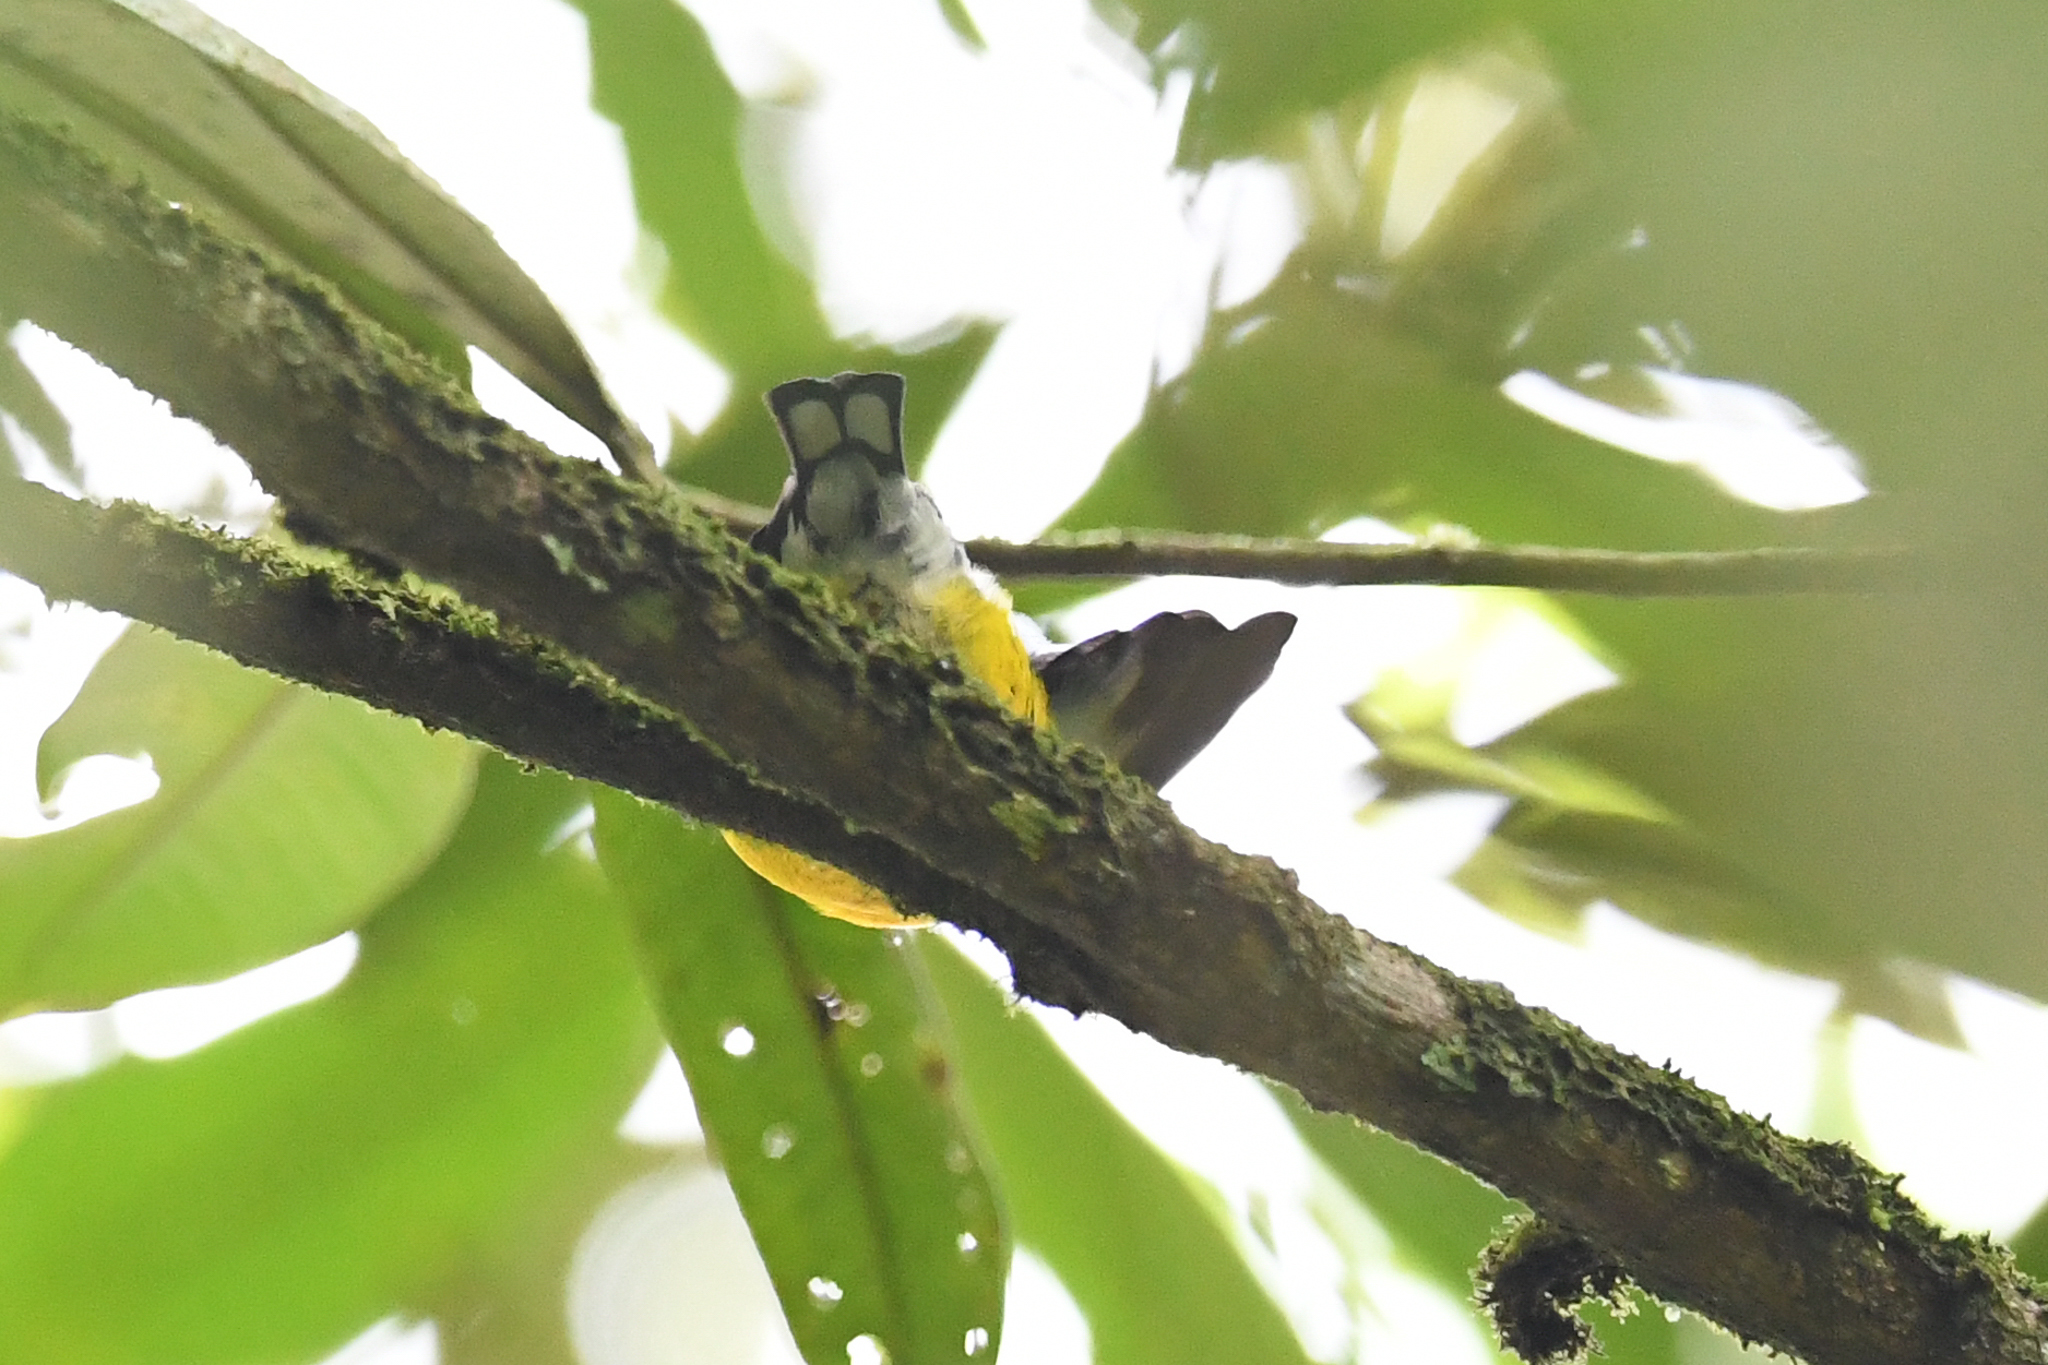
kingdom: Animalia
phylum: Chordata
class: Aves
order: Passeriformes
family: Fringillidae
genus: Euphonia
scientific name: Euphonia minuta
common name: White-vented euphonia
